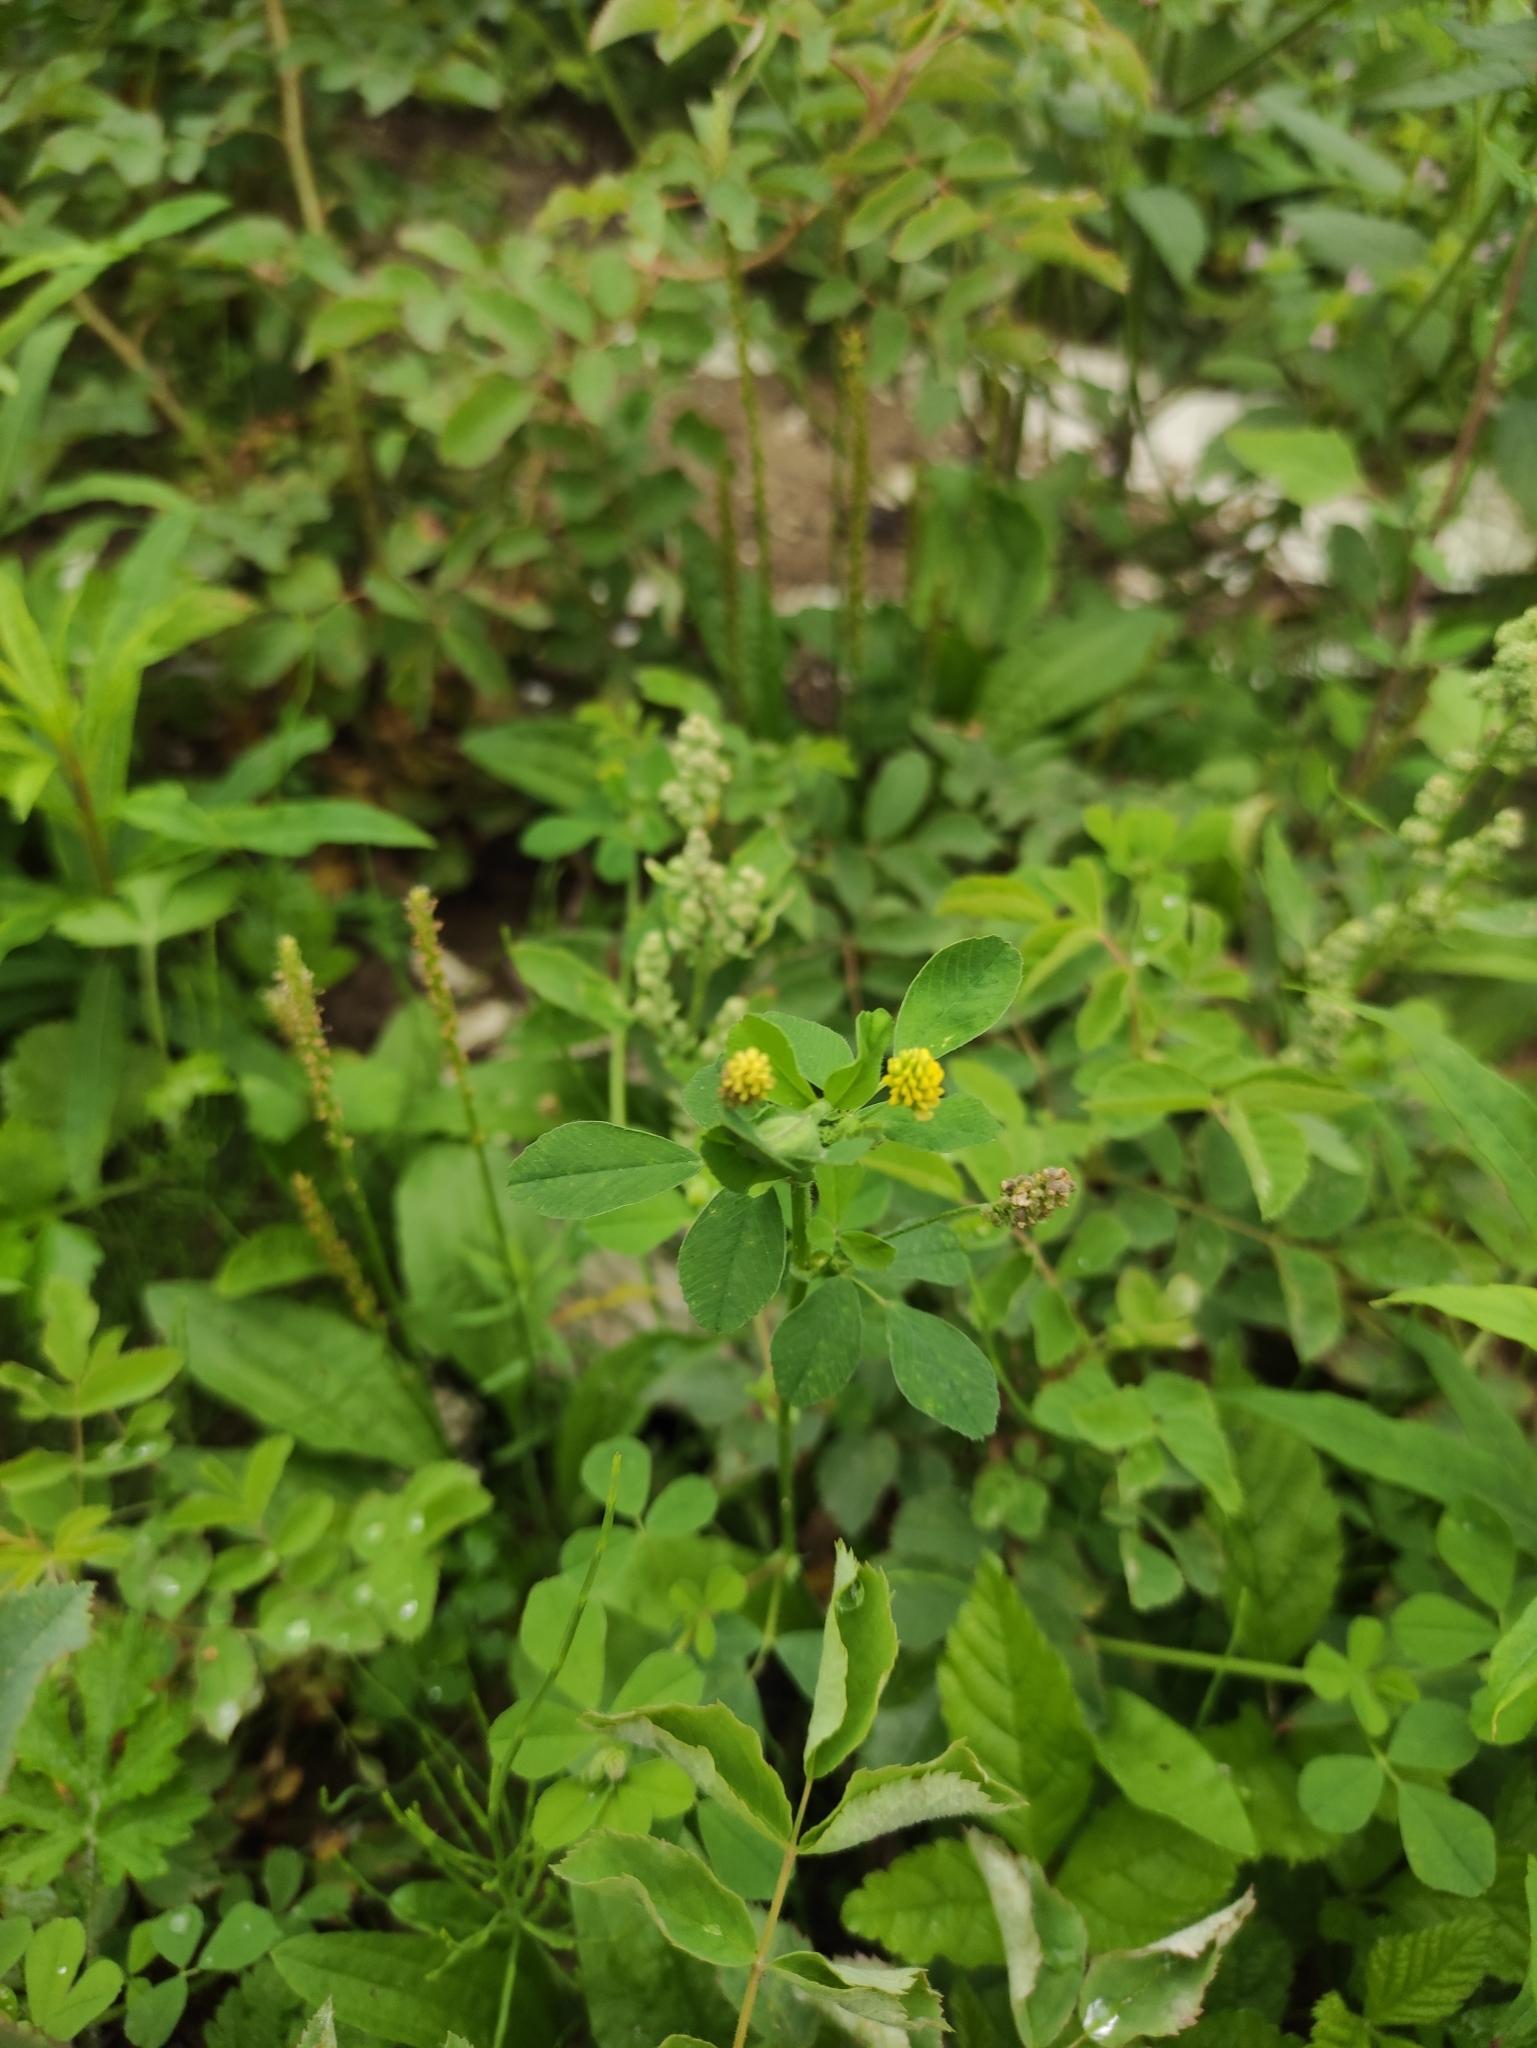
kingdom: Plantae
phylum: Tracheophyta
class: Magnoliopsida
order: Fabales
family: Fabaceae
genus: Medicago
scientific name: Medicago lupulina
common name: Black medick
